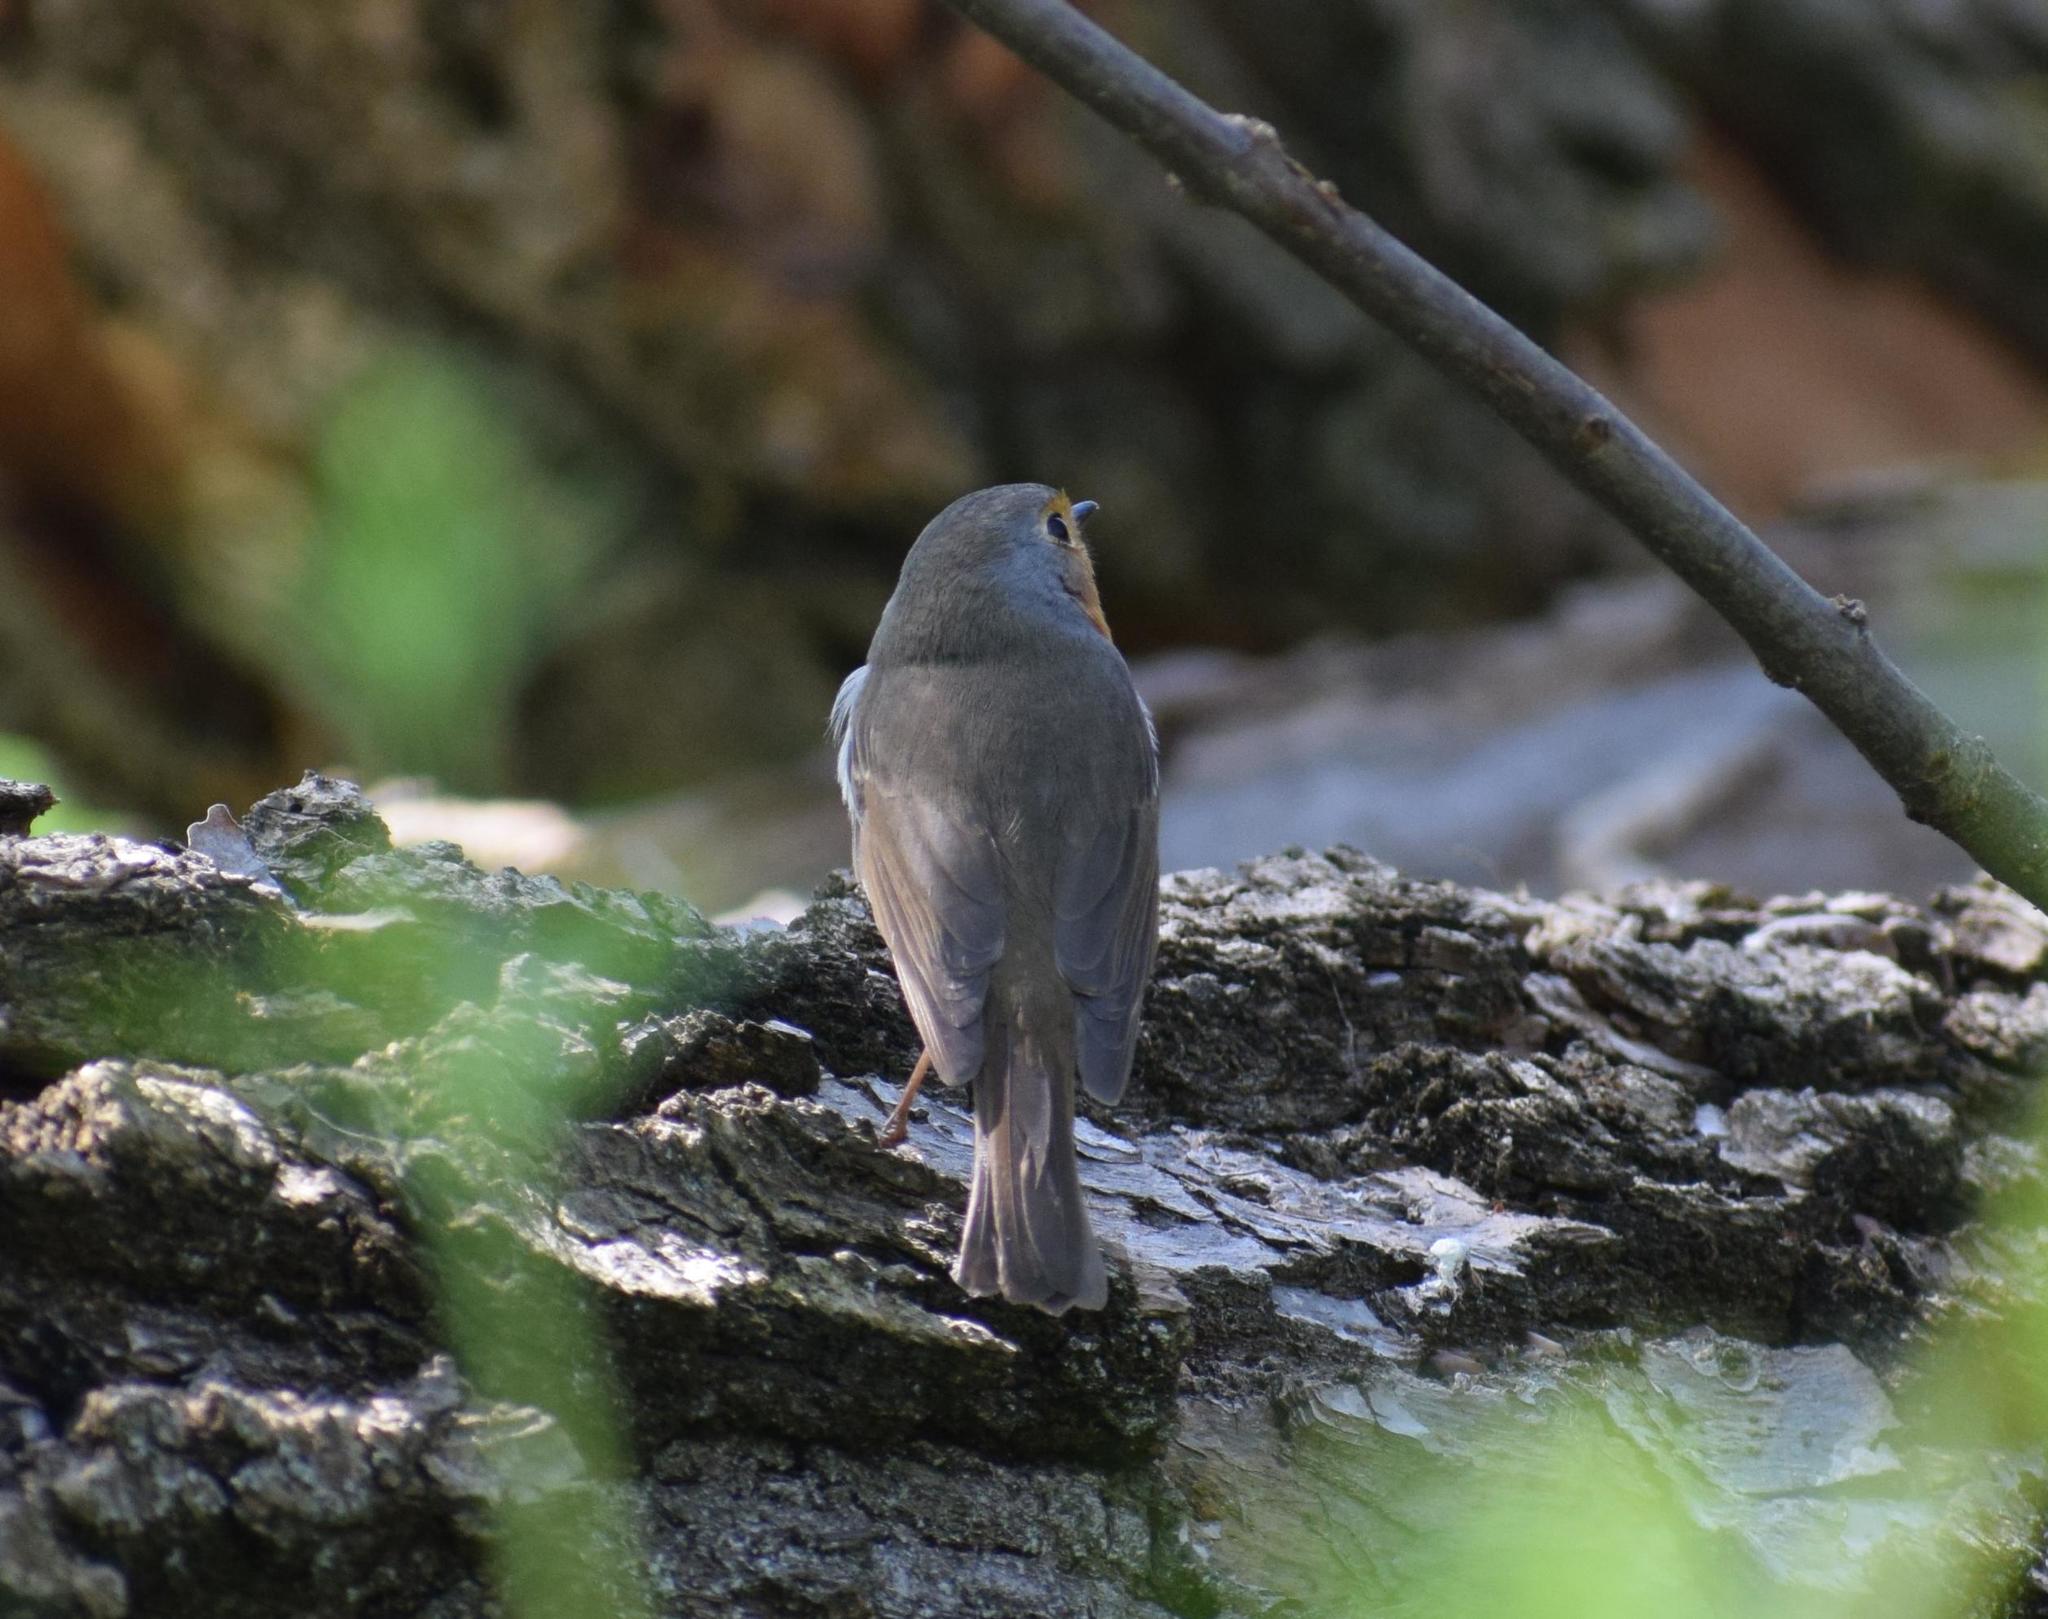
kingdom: Animalia
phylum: Chordata
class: Aves
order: Passeriformes
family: Muscicapidae
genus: Erithacus
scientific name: Erithacus rubecula
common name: European robin
